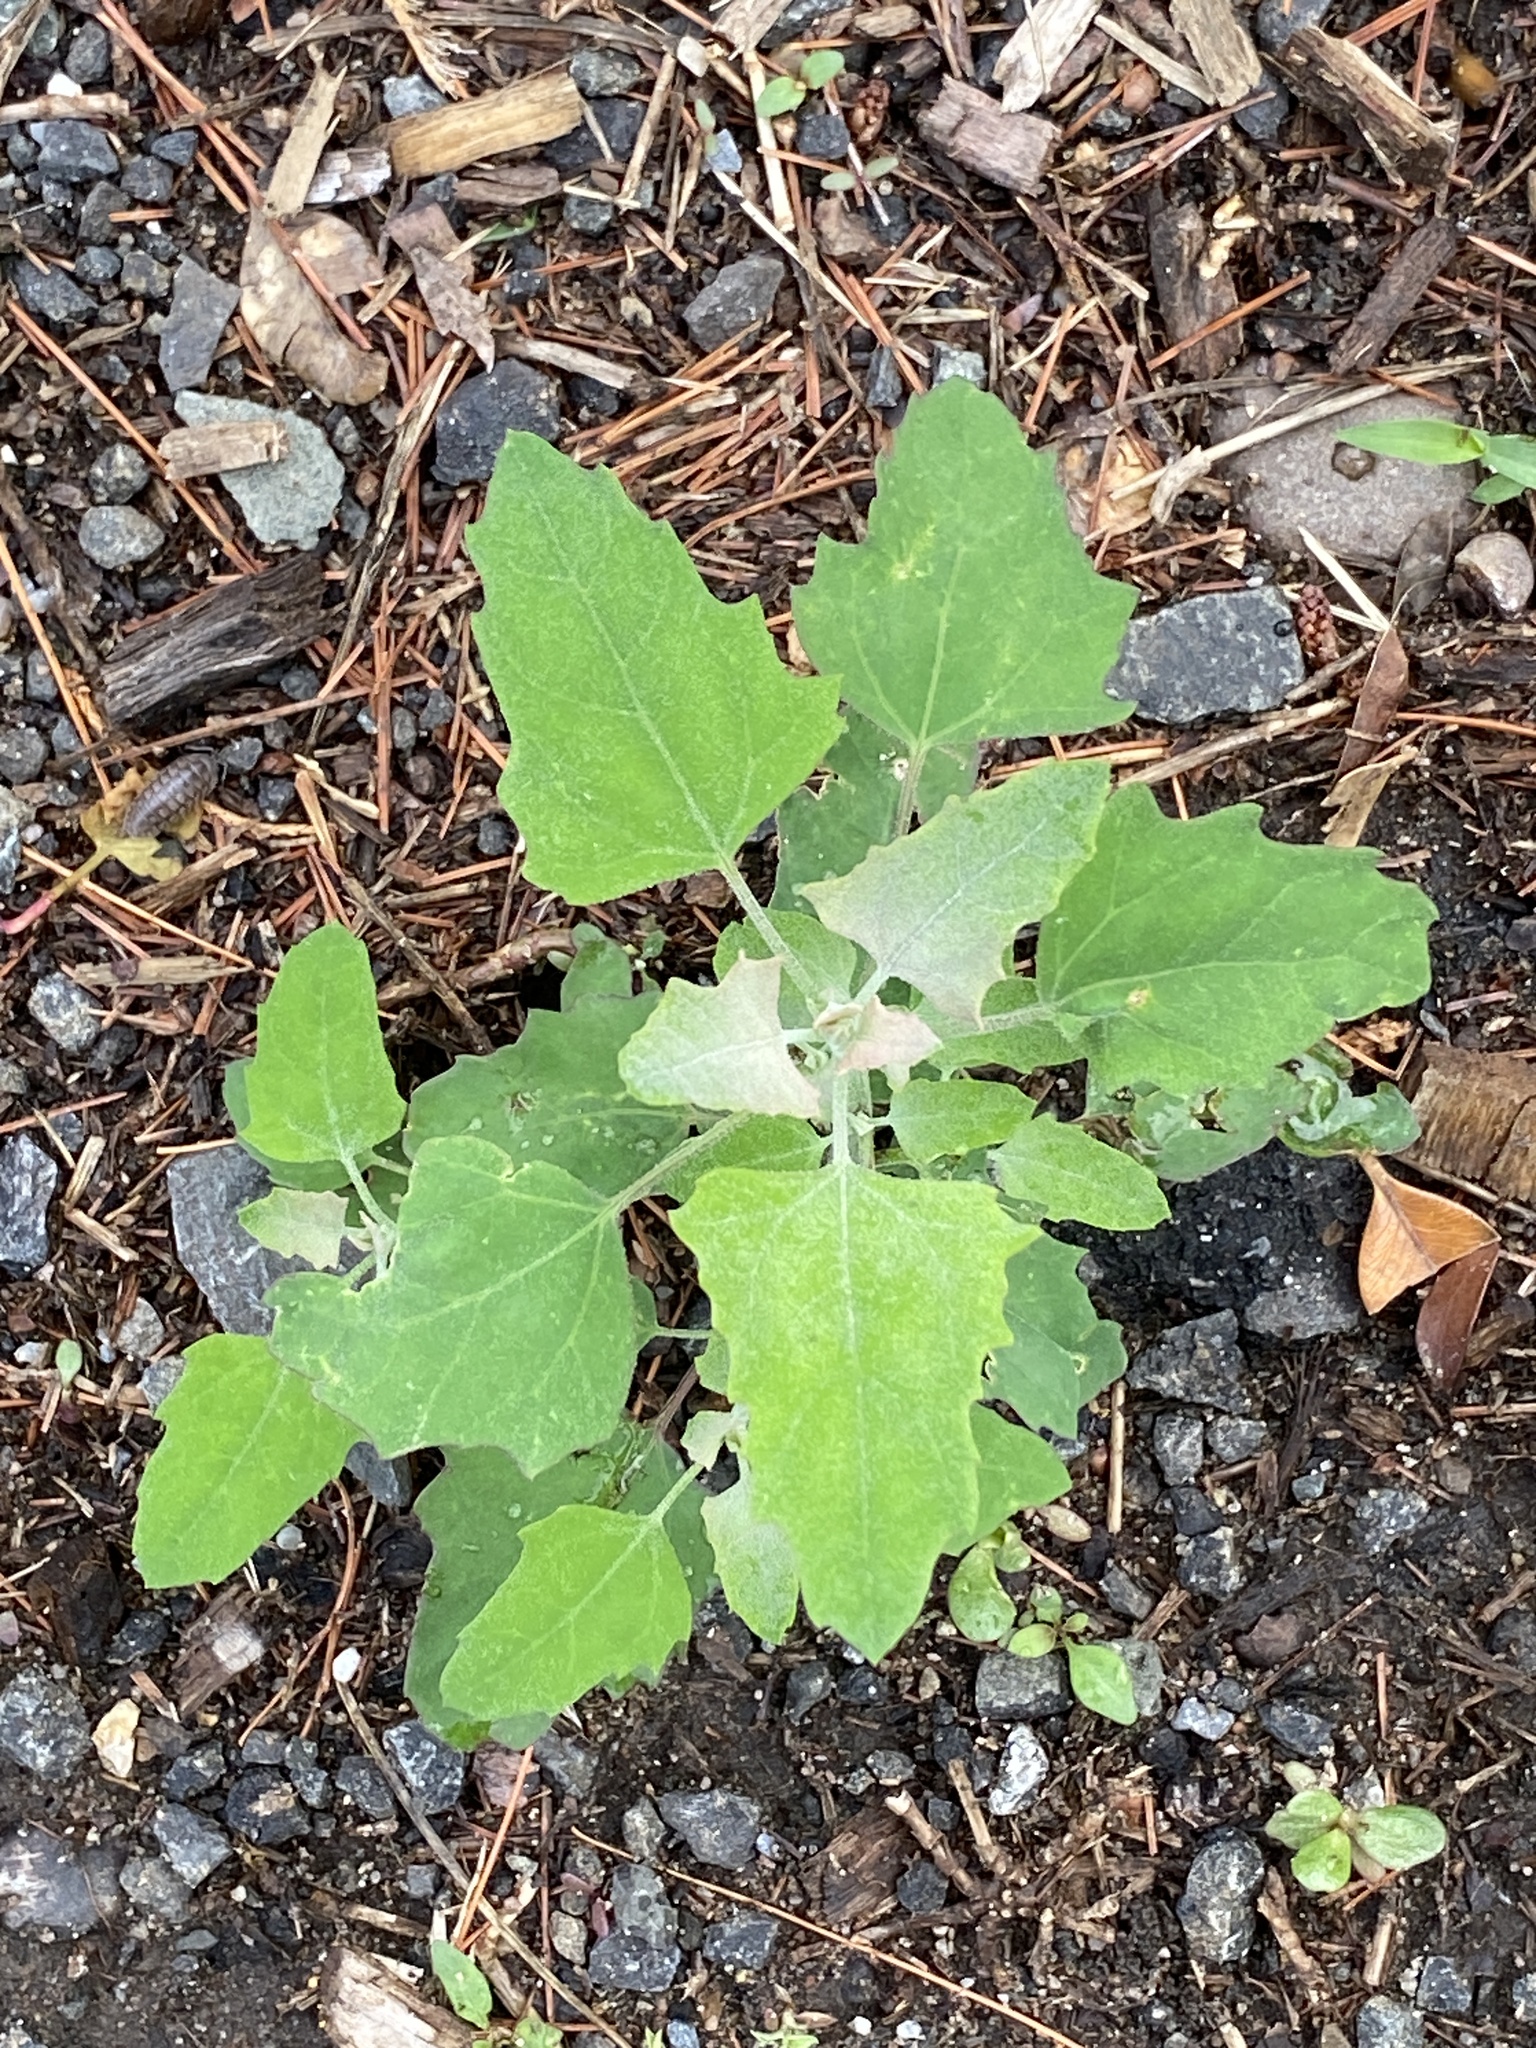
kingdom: Plantae
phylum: Tracheophyta
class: Magnoliopsida
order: Caryophyllales
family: Amaranthaceae
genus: Chenopodium
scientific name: Chenopodium album
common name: Fat-hen
